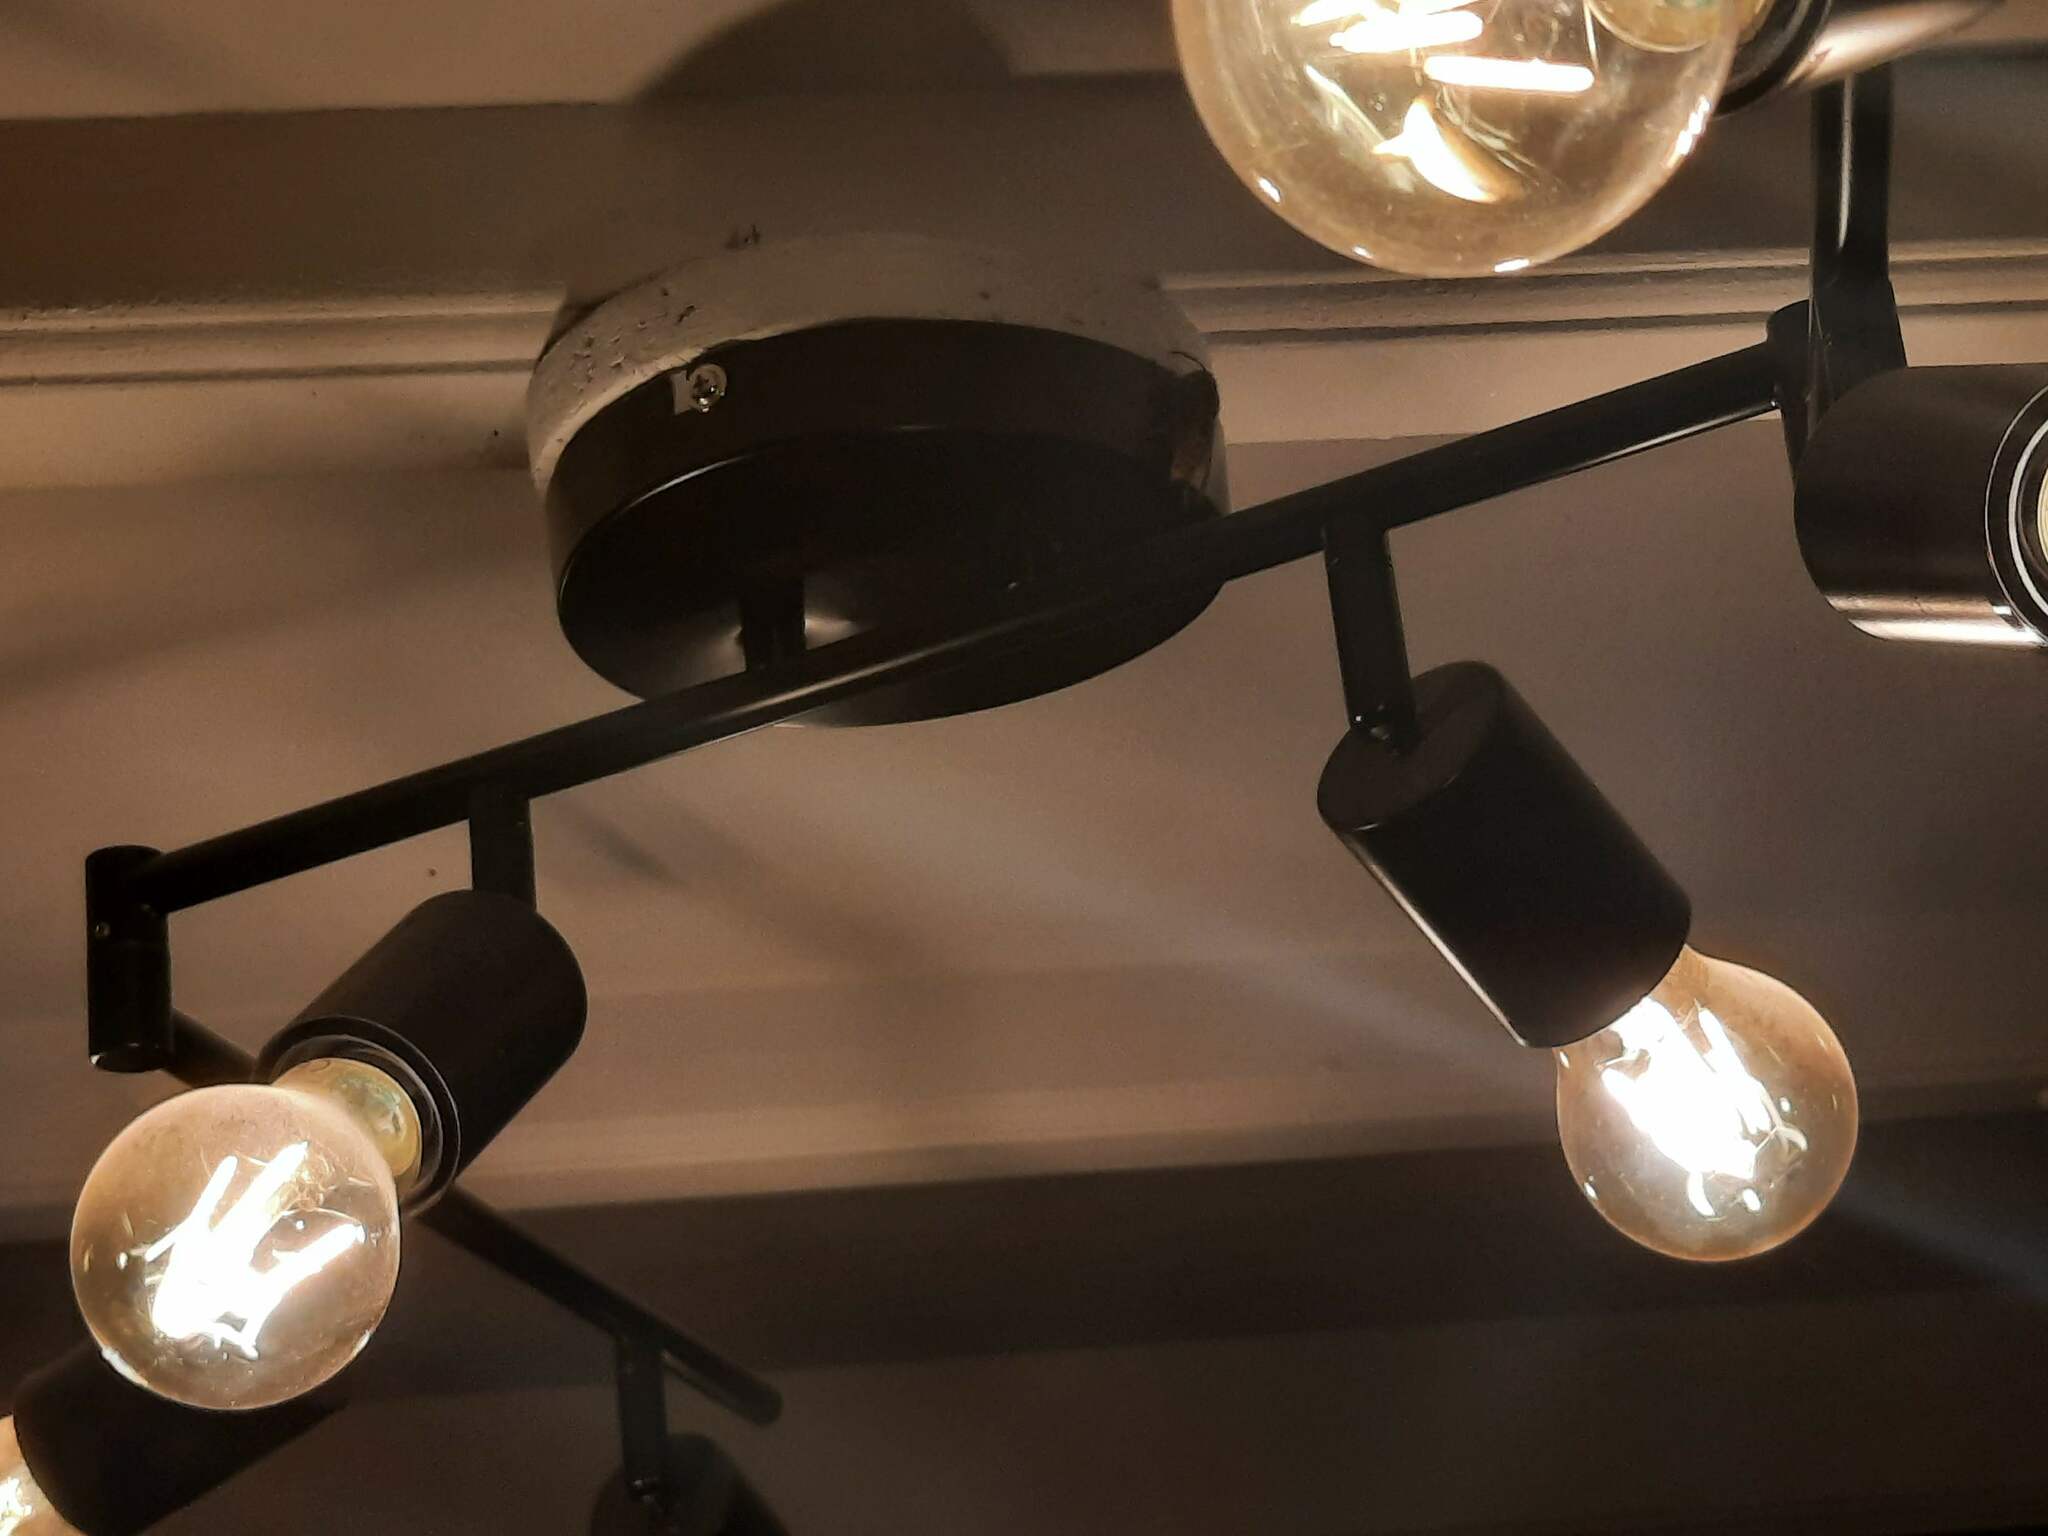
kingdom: Animalia
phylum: Arthropoda
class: Insecta
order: Hymenoptera
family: Vespidae
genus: Vespa
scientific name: Vespa crabro
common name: Hornet
